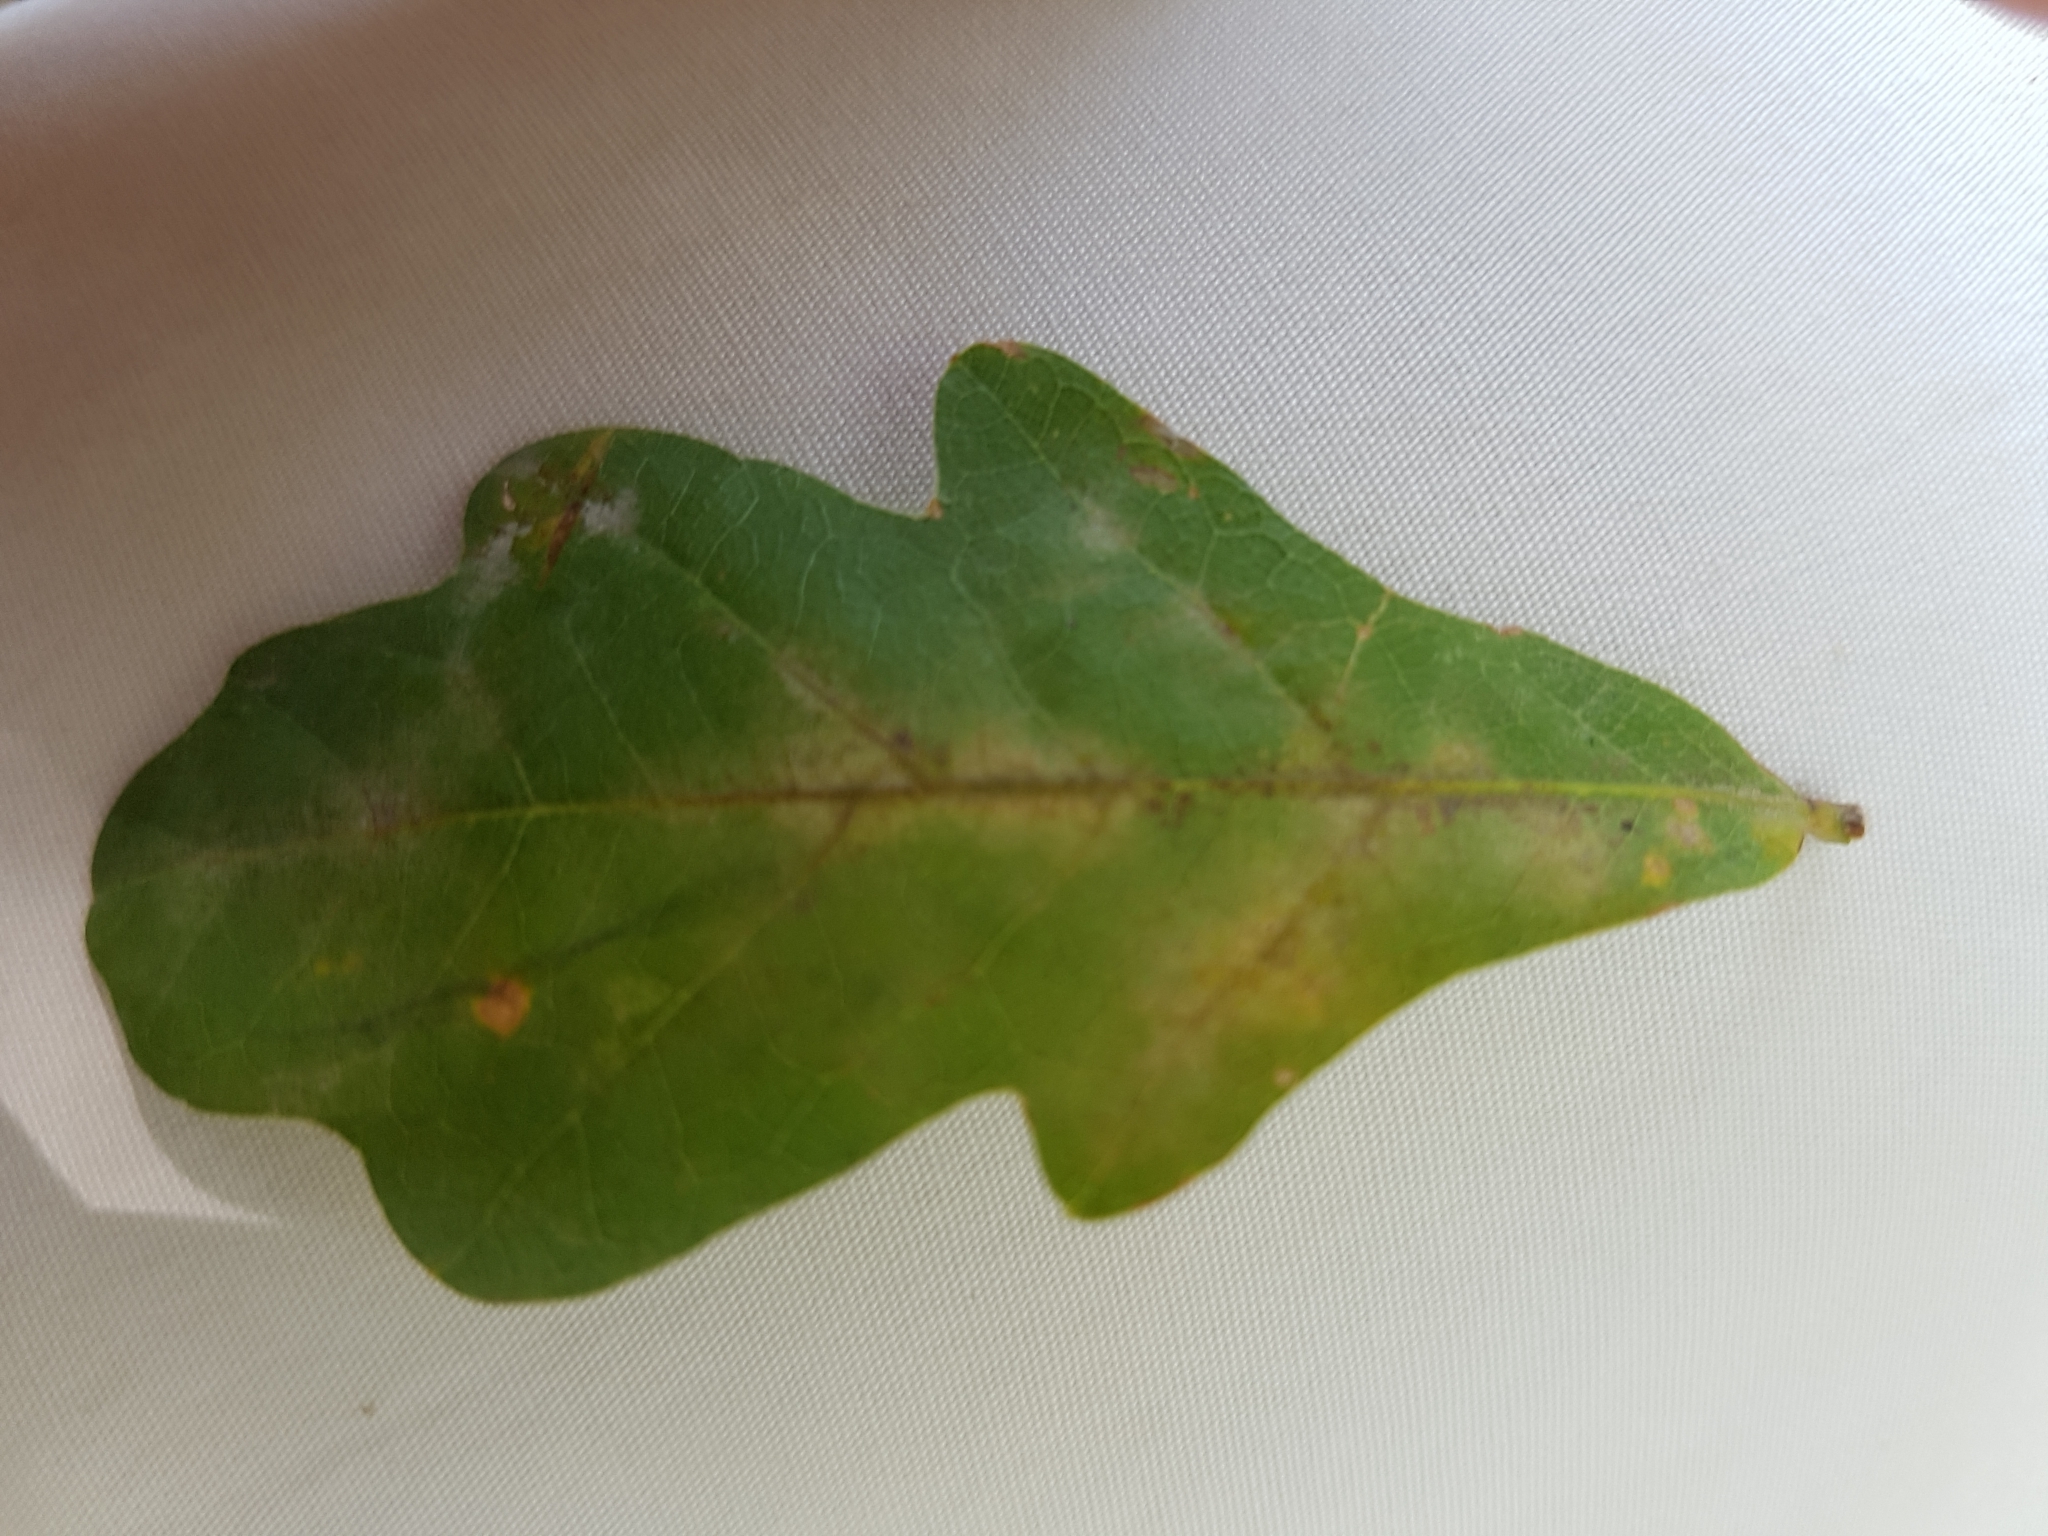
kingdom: Plantae
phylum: Tracheophyta
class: Magnoliopsida
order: Fagales
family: Fagaceae
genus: Quercus
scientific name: Quercus robur
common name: Pedunculate oak
